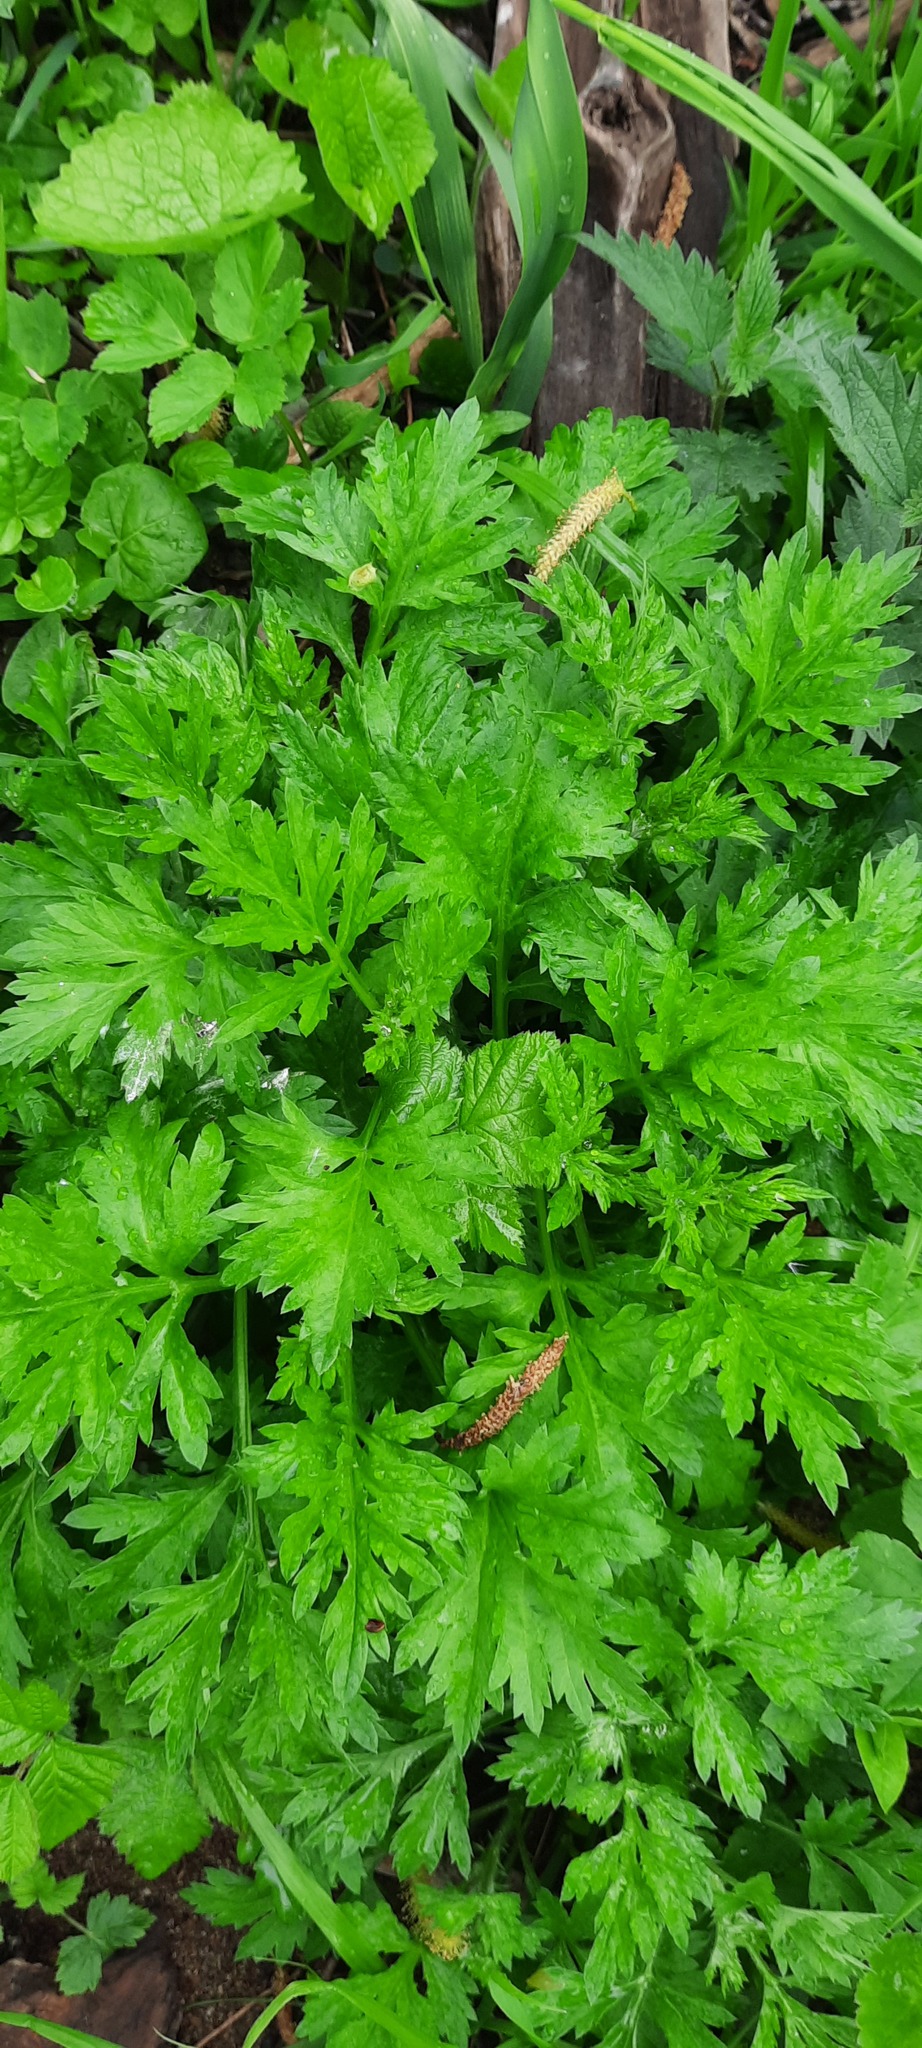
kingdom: Plantae
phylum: Tracheophyta
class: Magnoliopsida
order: Asterales
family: Asteraceae
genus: Artemisia
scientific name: Artemisia vulgaris
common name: Mugwort
